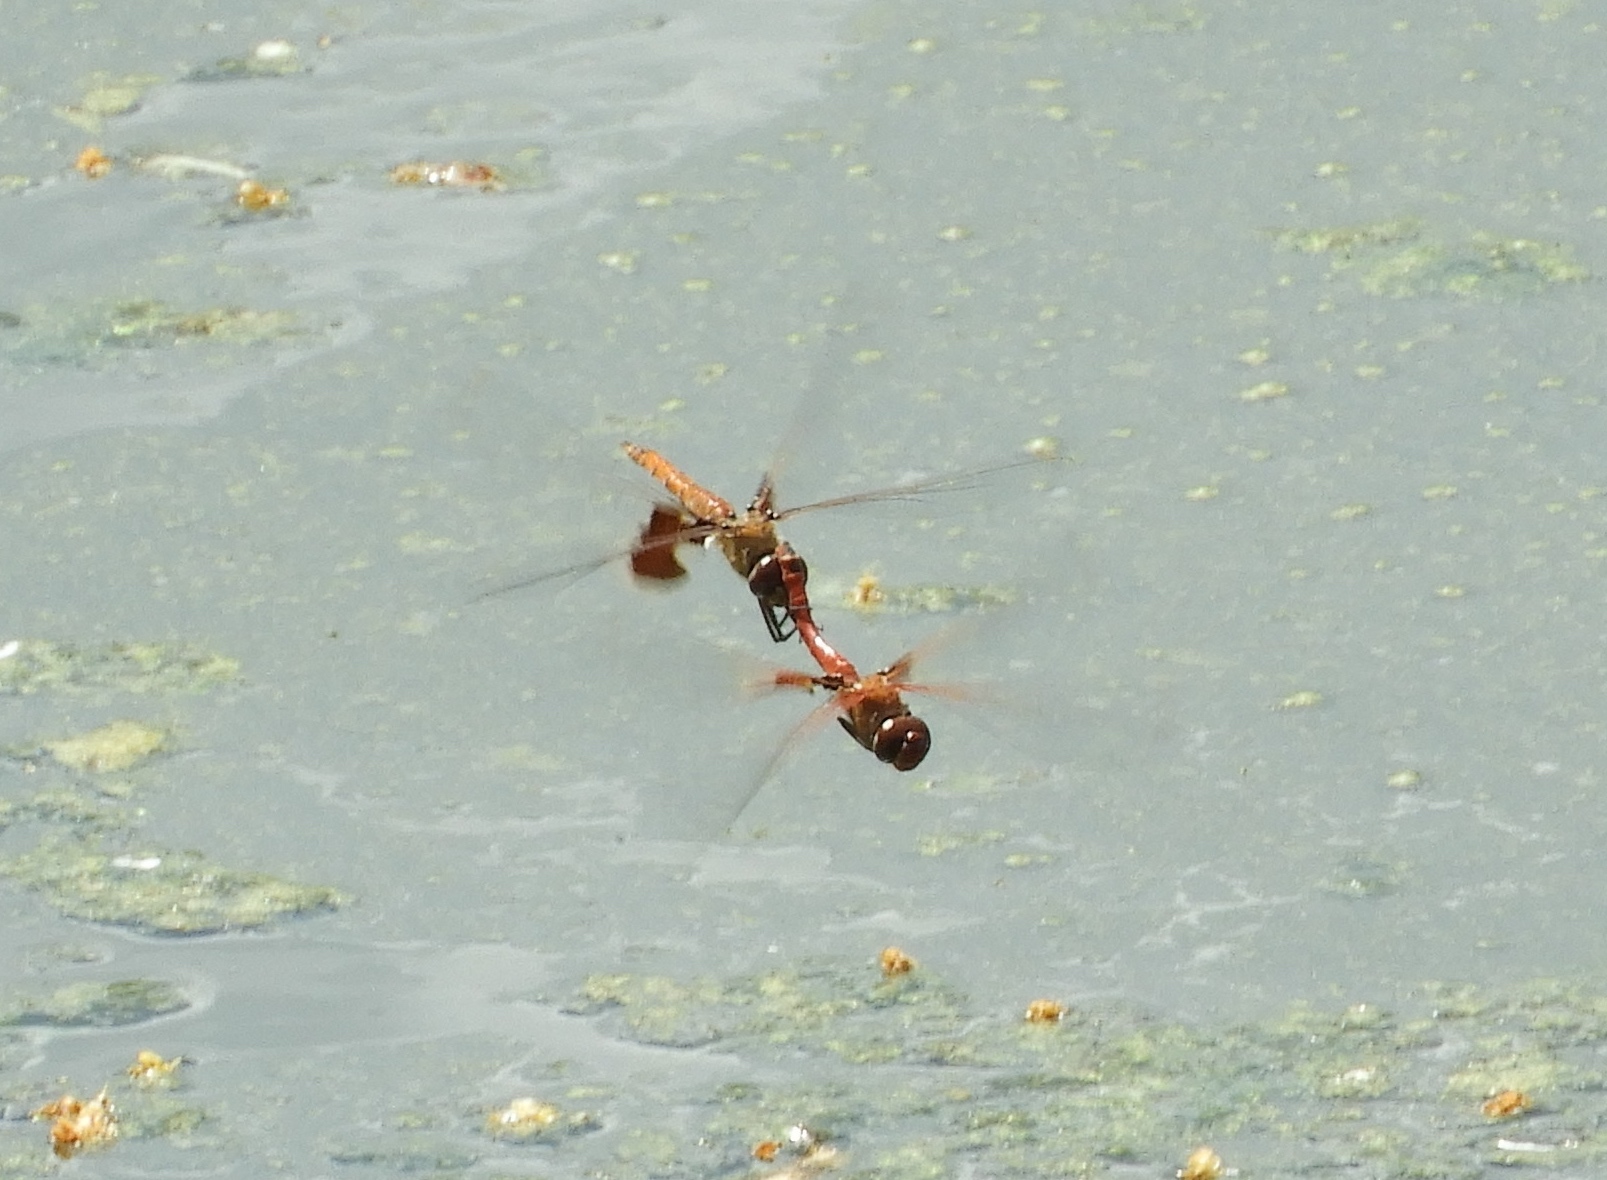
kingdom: Animalia
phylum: Arthropoda
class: Insecta
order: Odonata
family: Libellulidae
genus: Tramea
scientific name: Tramea onusta
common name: Red saddlebags
